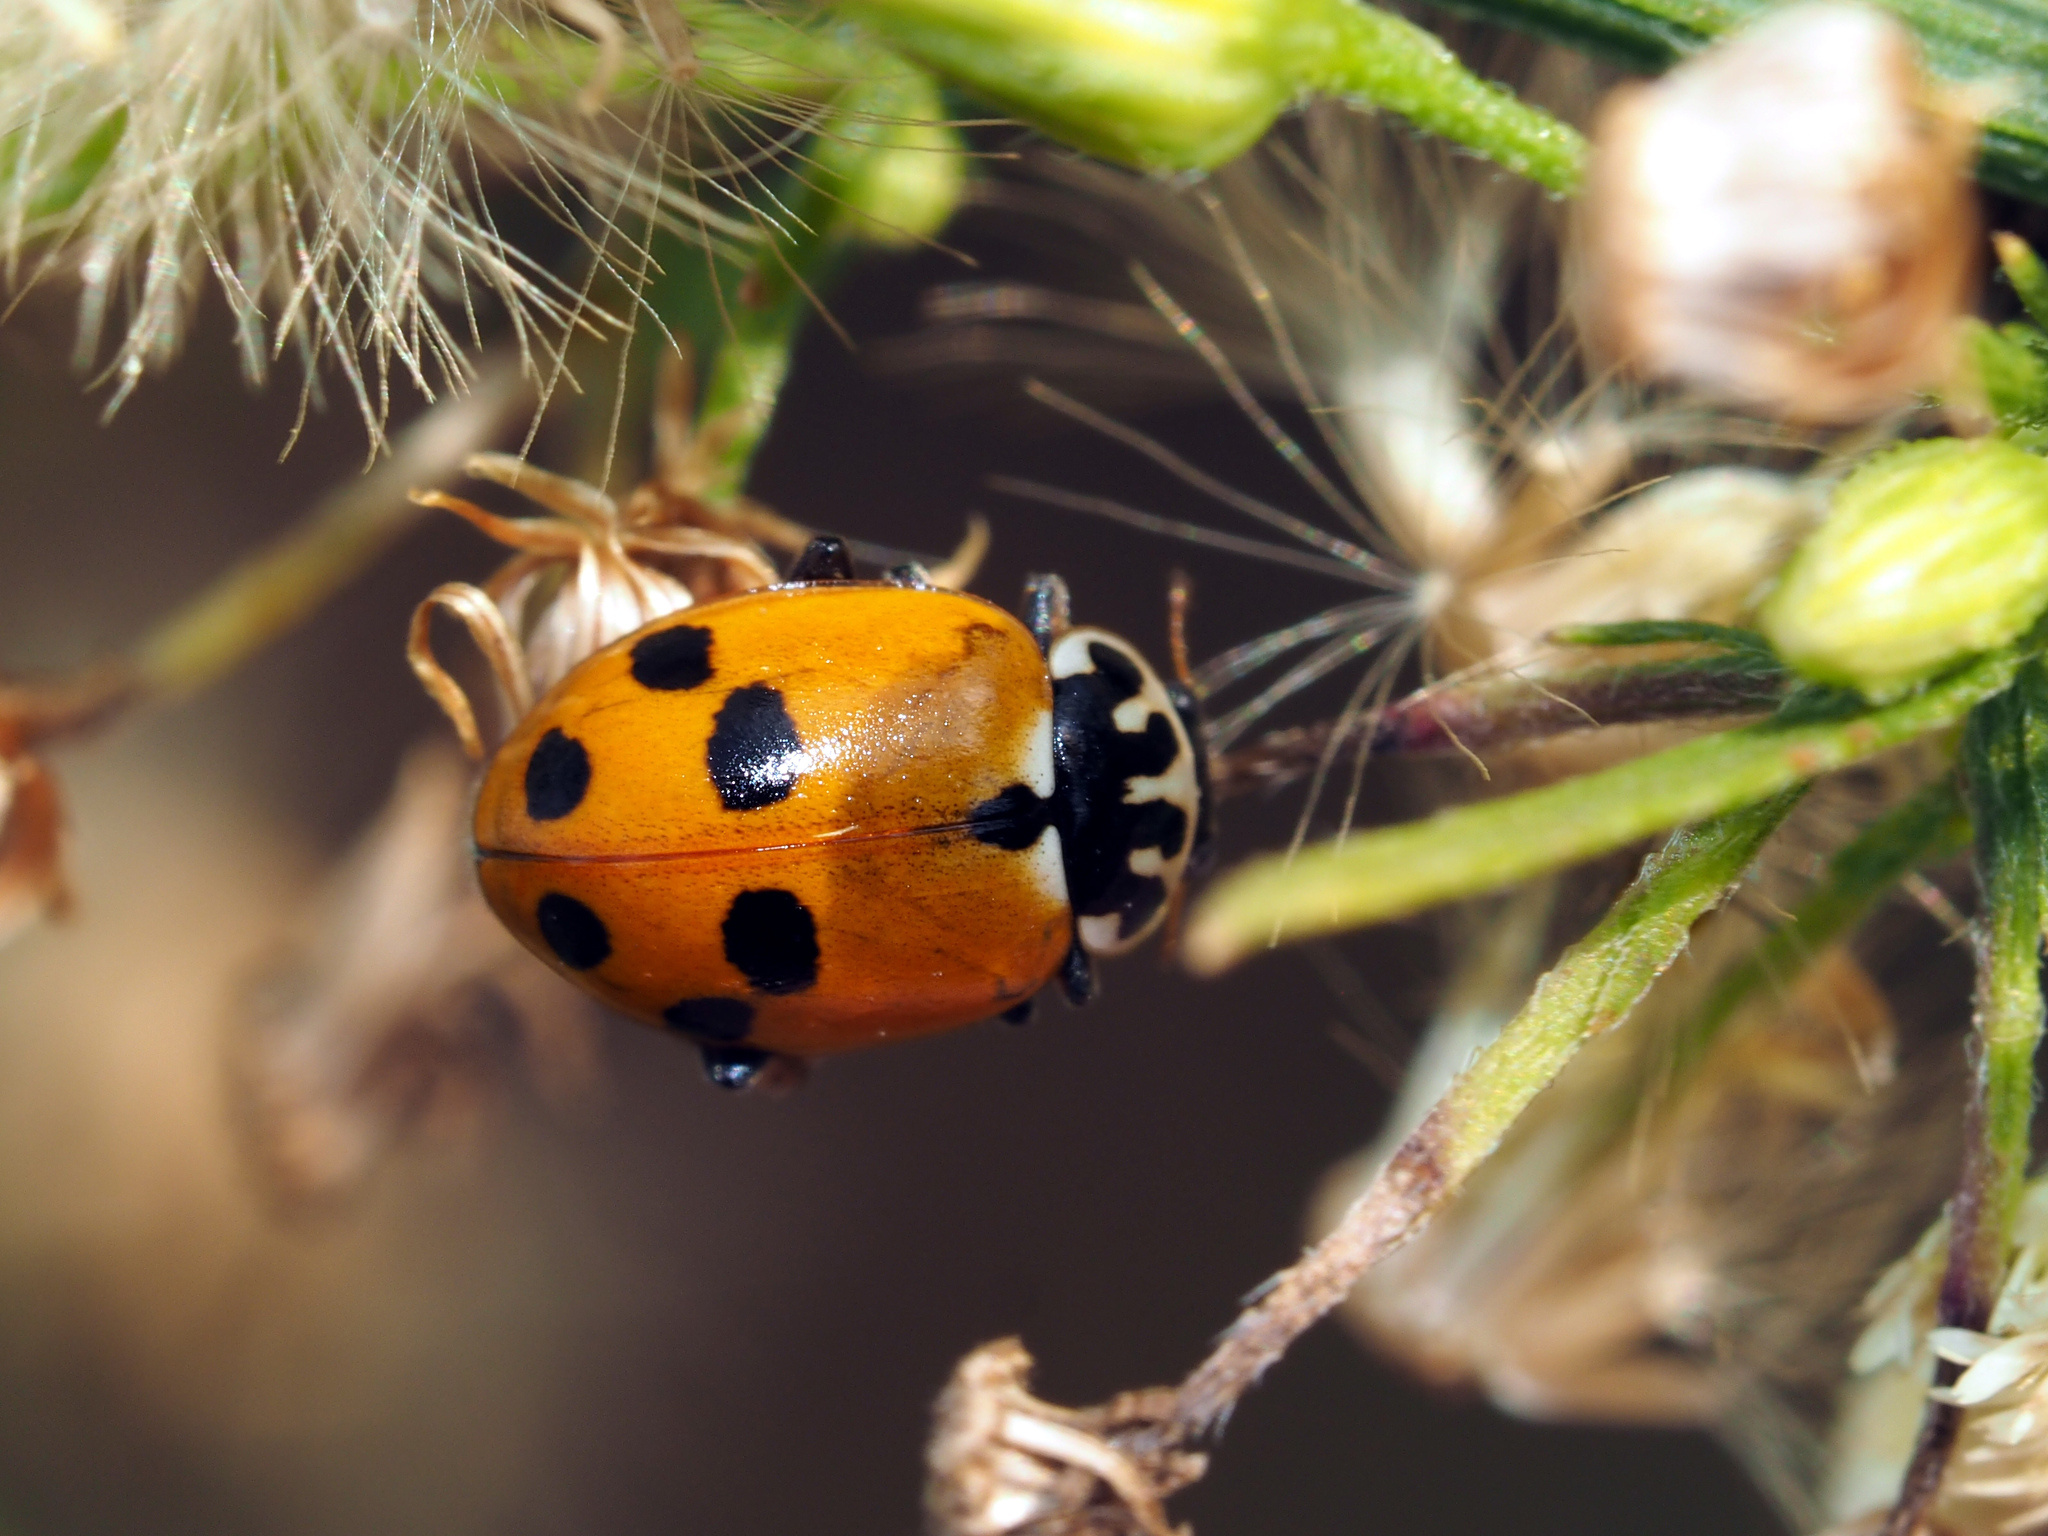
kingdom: Animalia
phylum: Arthropoda
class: Insecta
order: Coleoptera
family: Coccinellidae
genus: Hippodamia
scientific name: Hippodamia variegata
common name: Ladybird beetle
